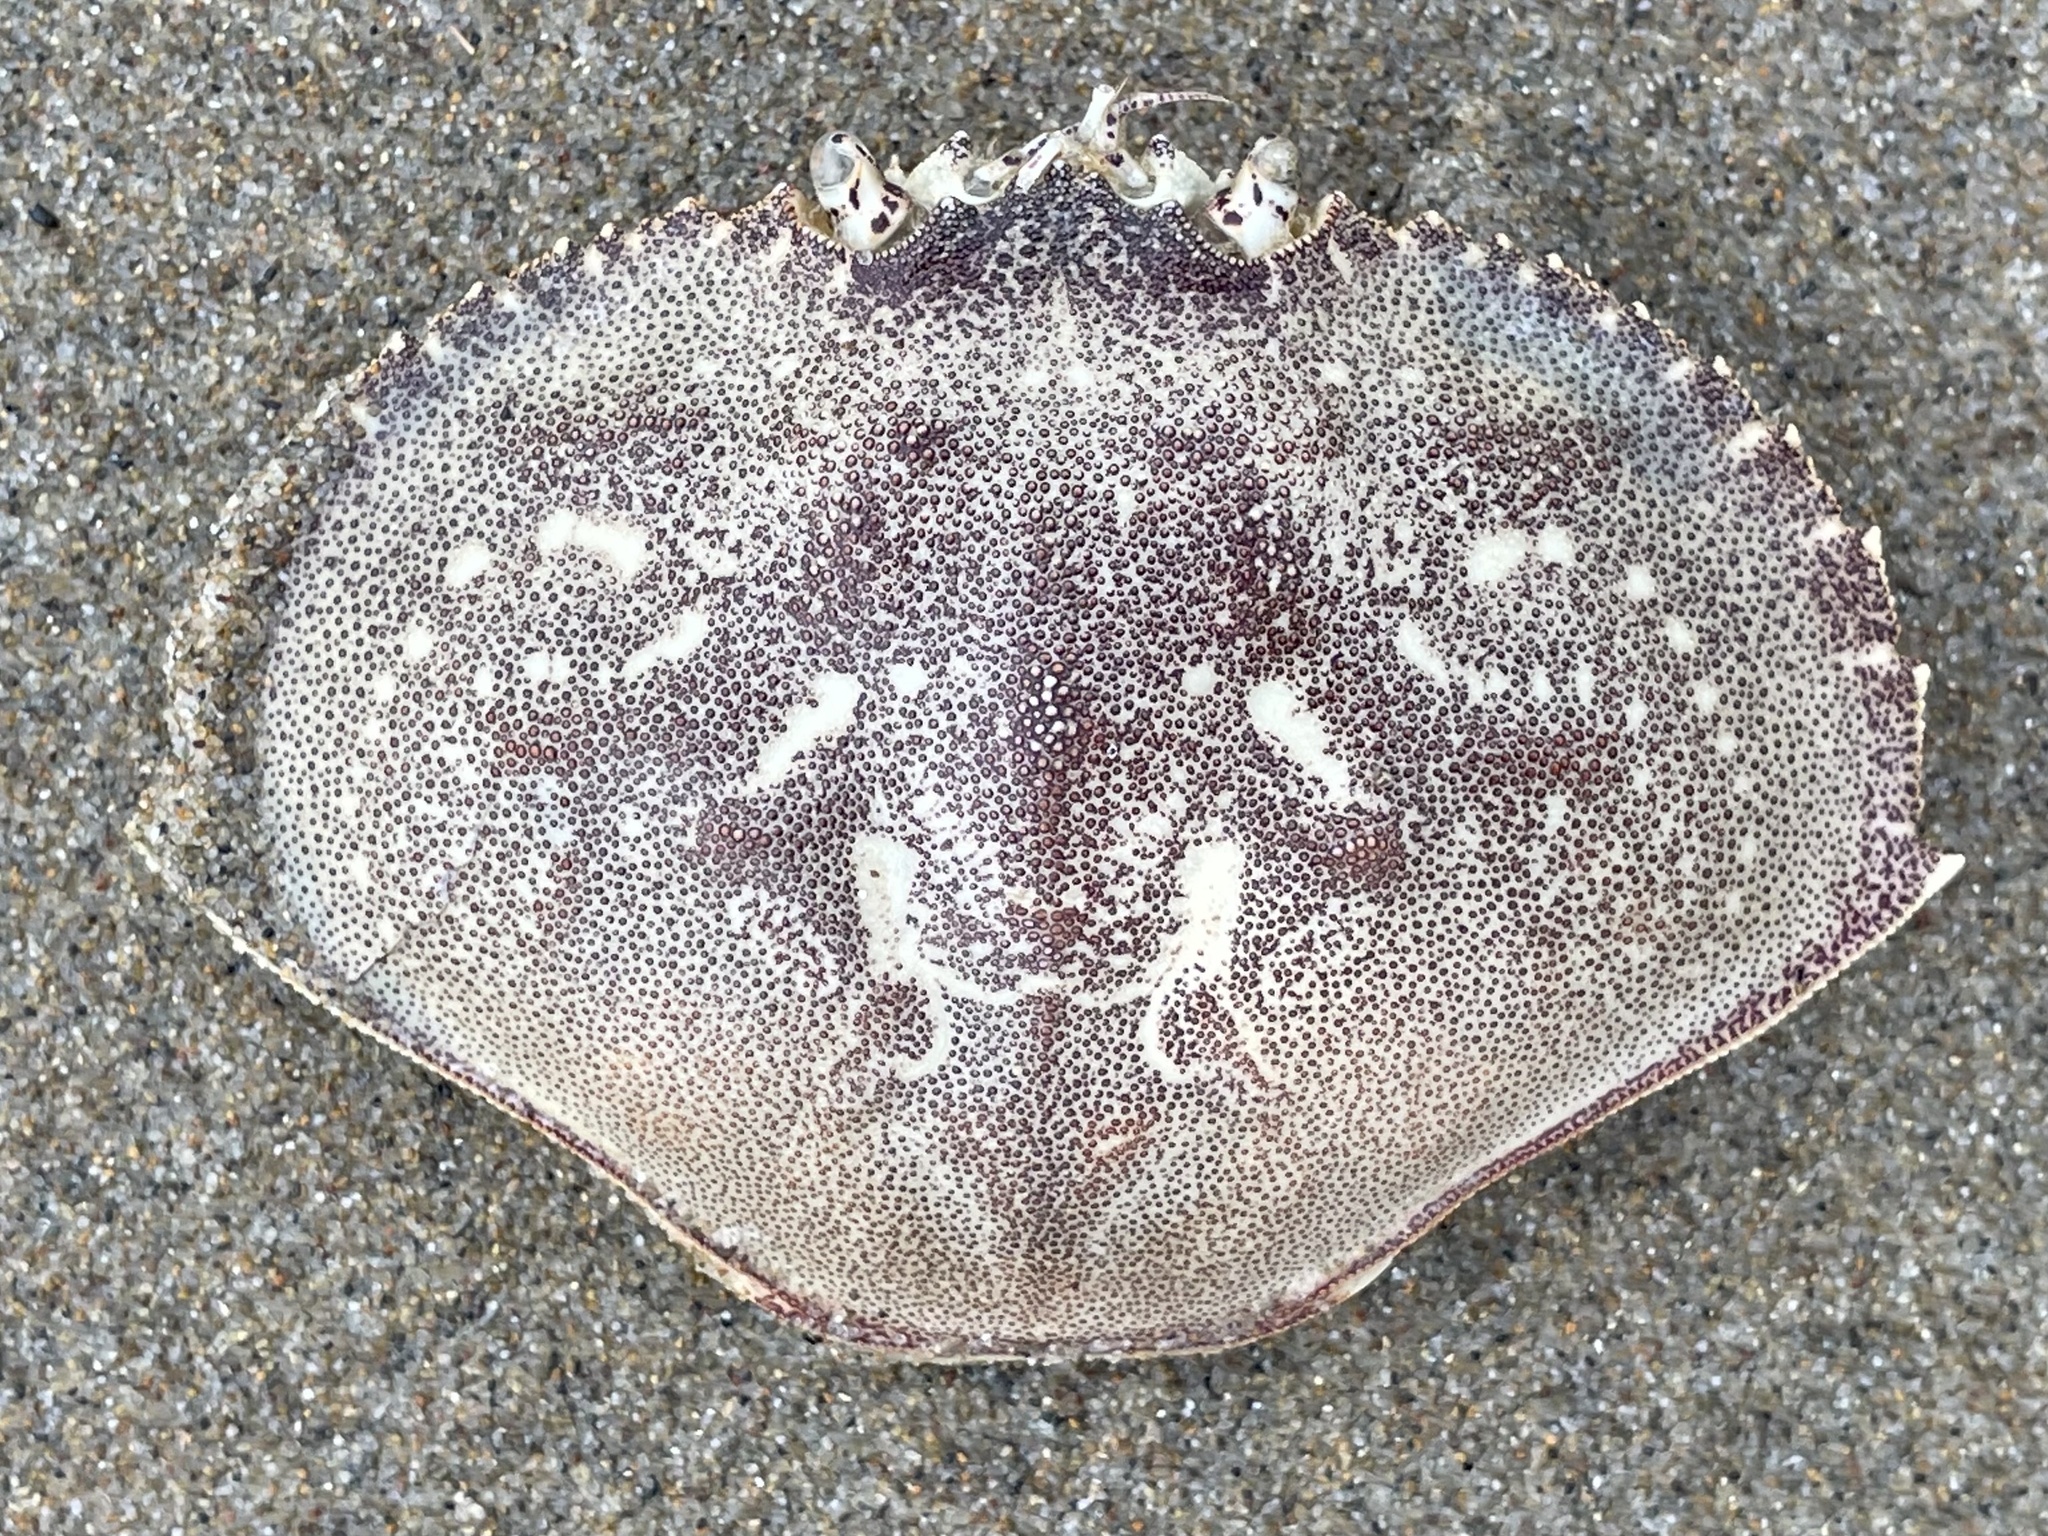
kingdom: Animalia
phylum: Arthropoda
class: Malacostraca
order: Decapoda
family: Cancridae
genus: Metacarcinus
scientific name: Metacarcinus magister
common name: Californian crab
